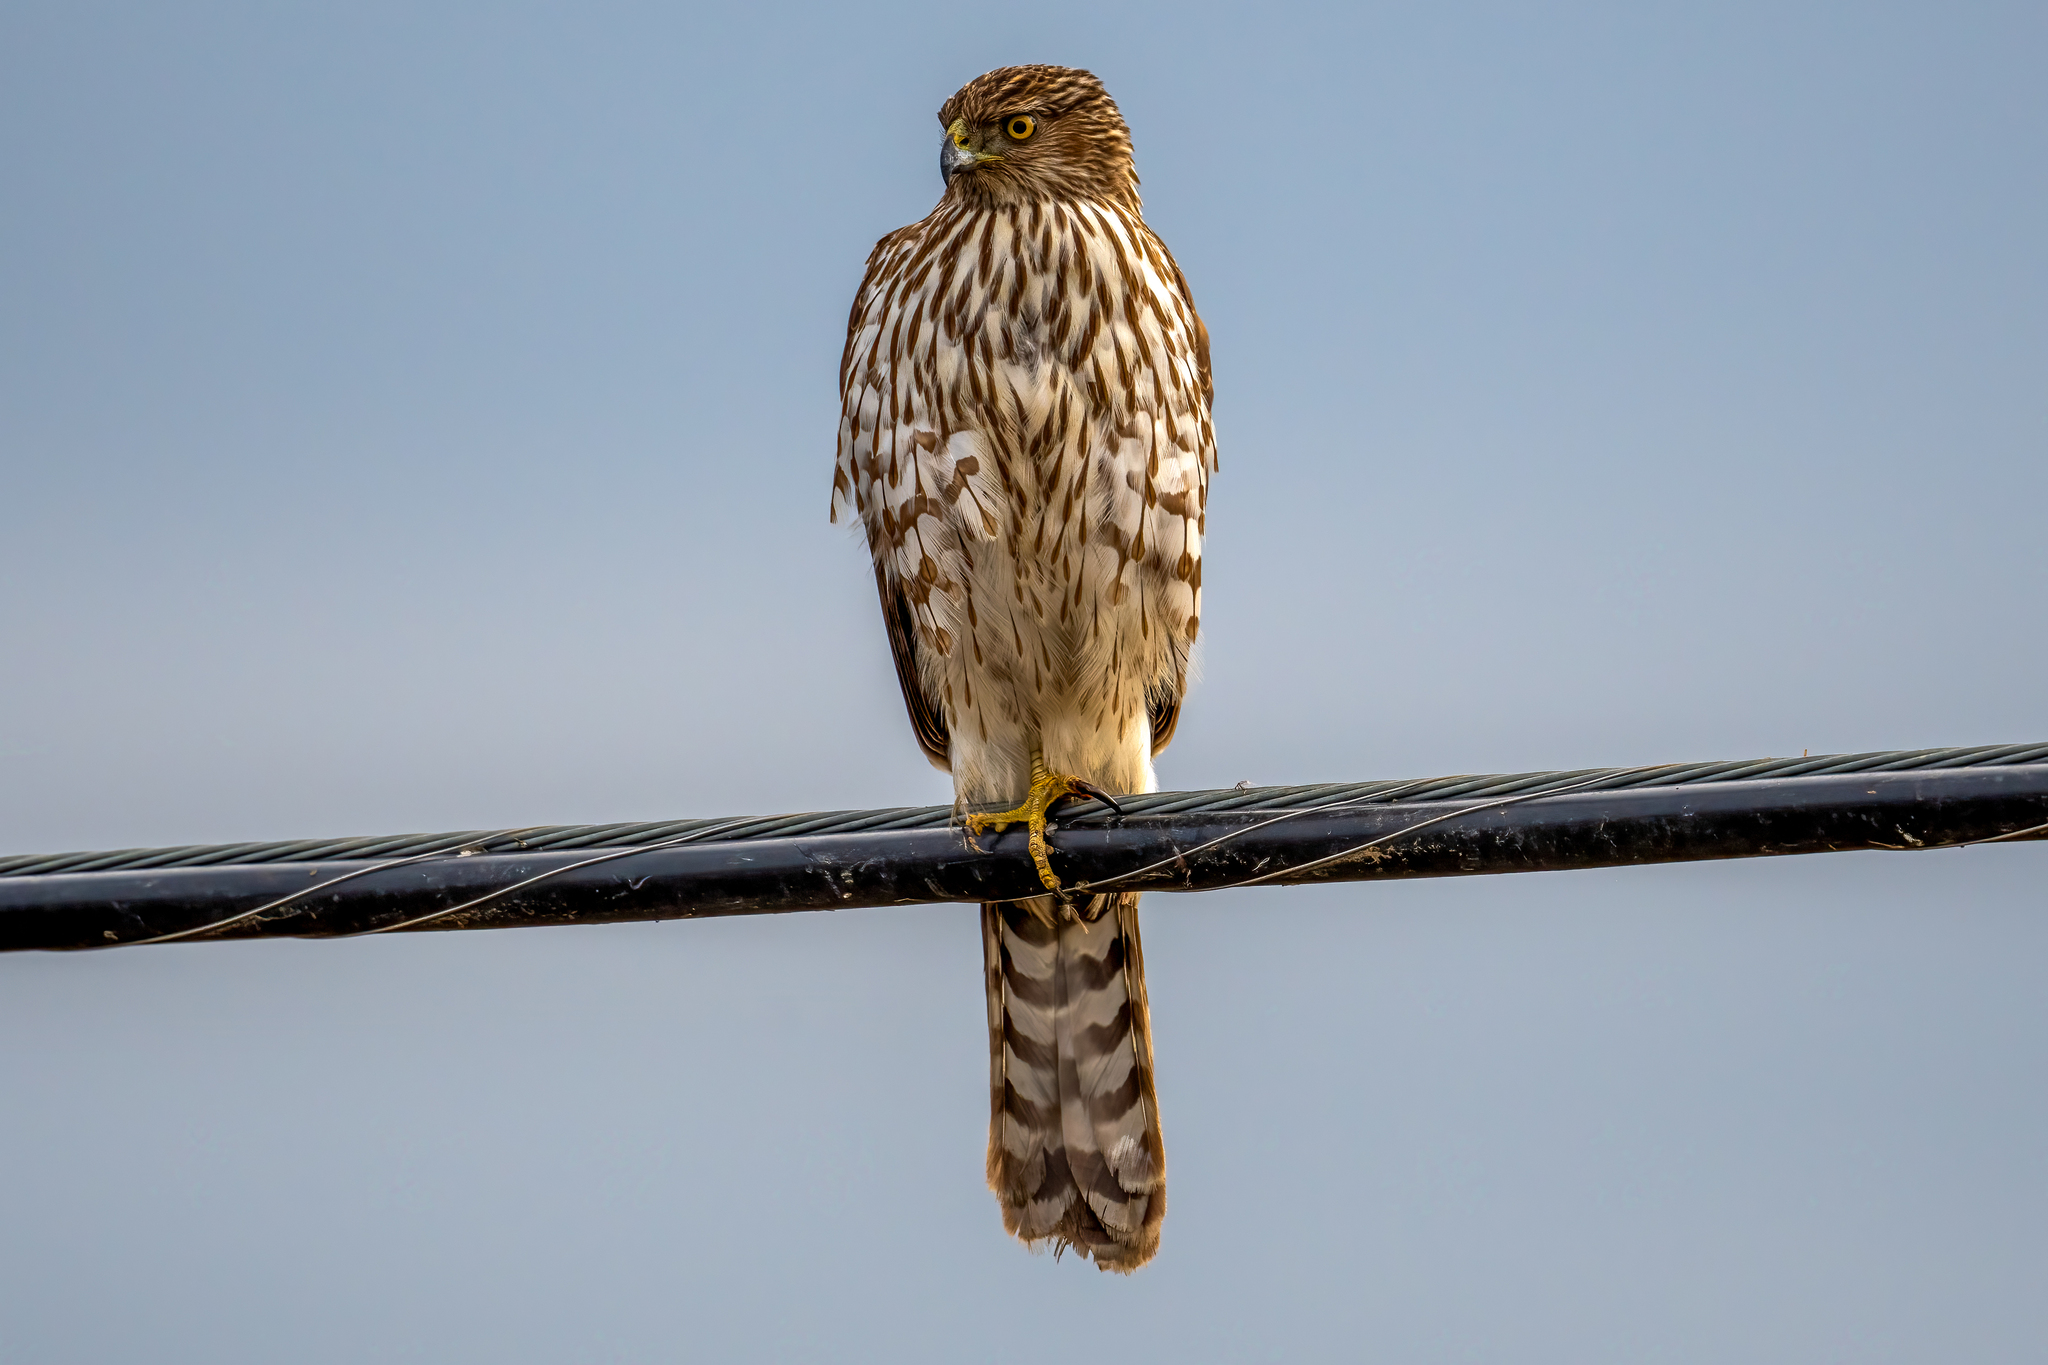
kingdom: Animalia
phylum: Chordata
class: Aves
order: Accipitriformes
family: Accipitridae
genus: Accipiter
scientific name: Accipiter cooperii
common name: Cooper's hawk
